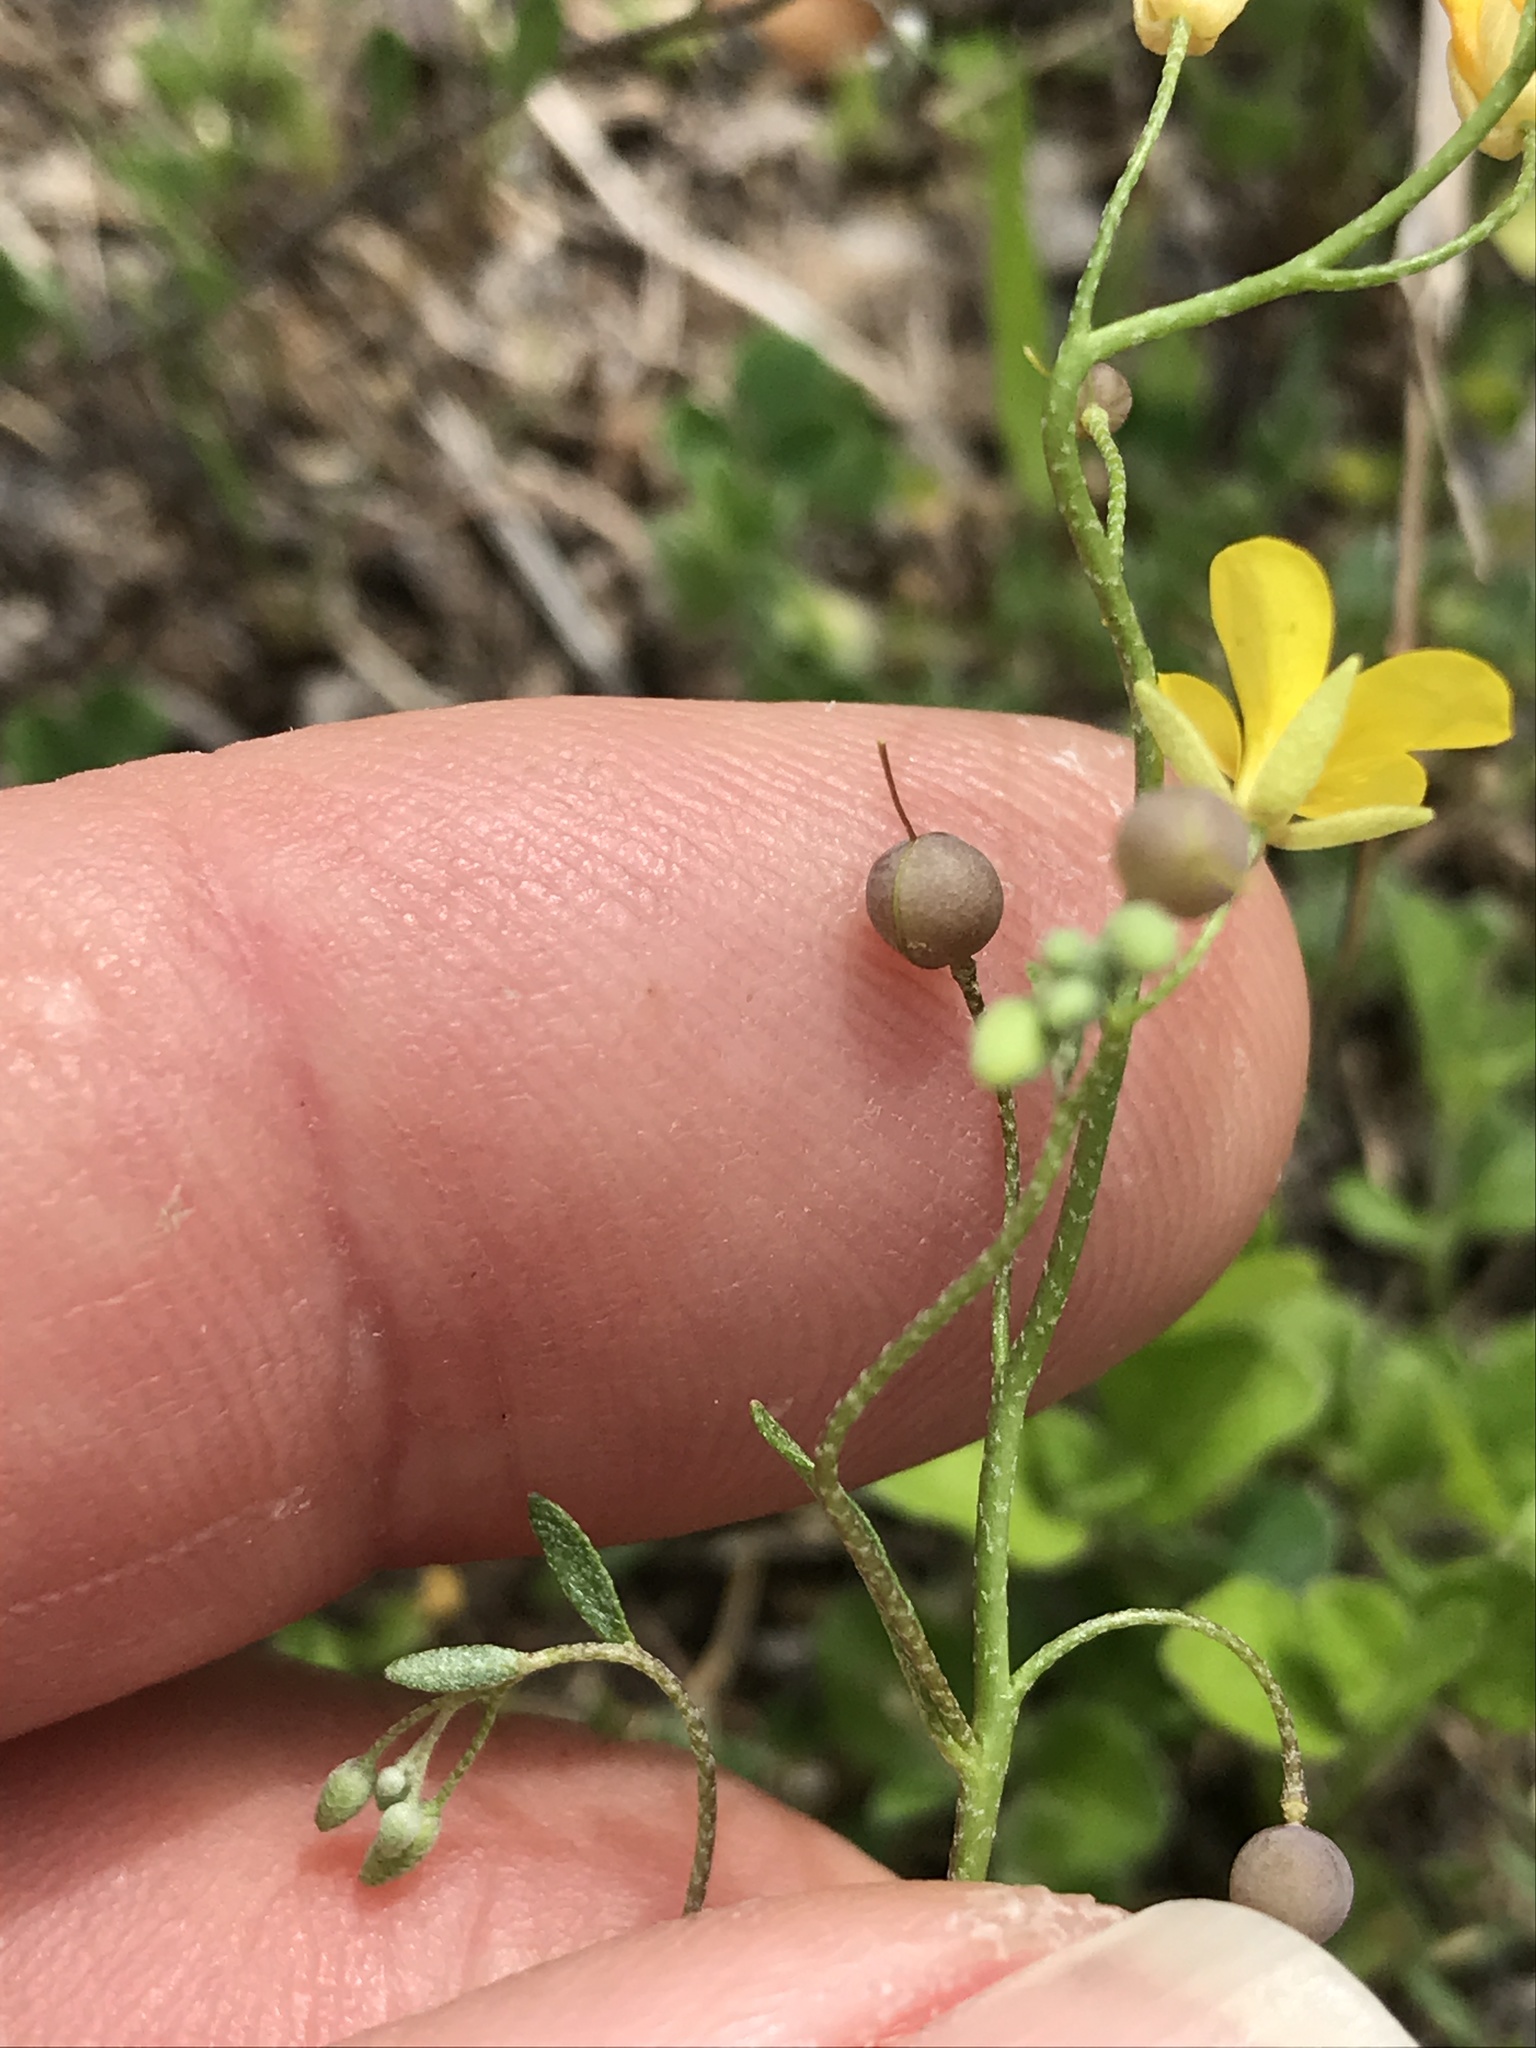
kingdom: Plantae
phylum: Tracheophyta
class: Magnoliopsida
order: Brassicales
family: Brassicaceae
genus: Physaria
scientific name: Physaria recurvata
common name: Gaslight bladderpod
